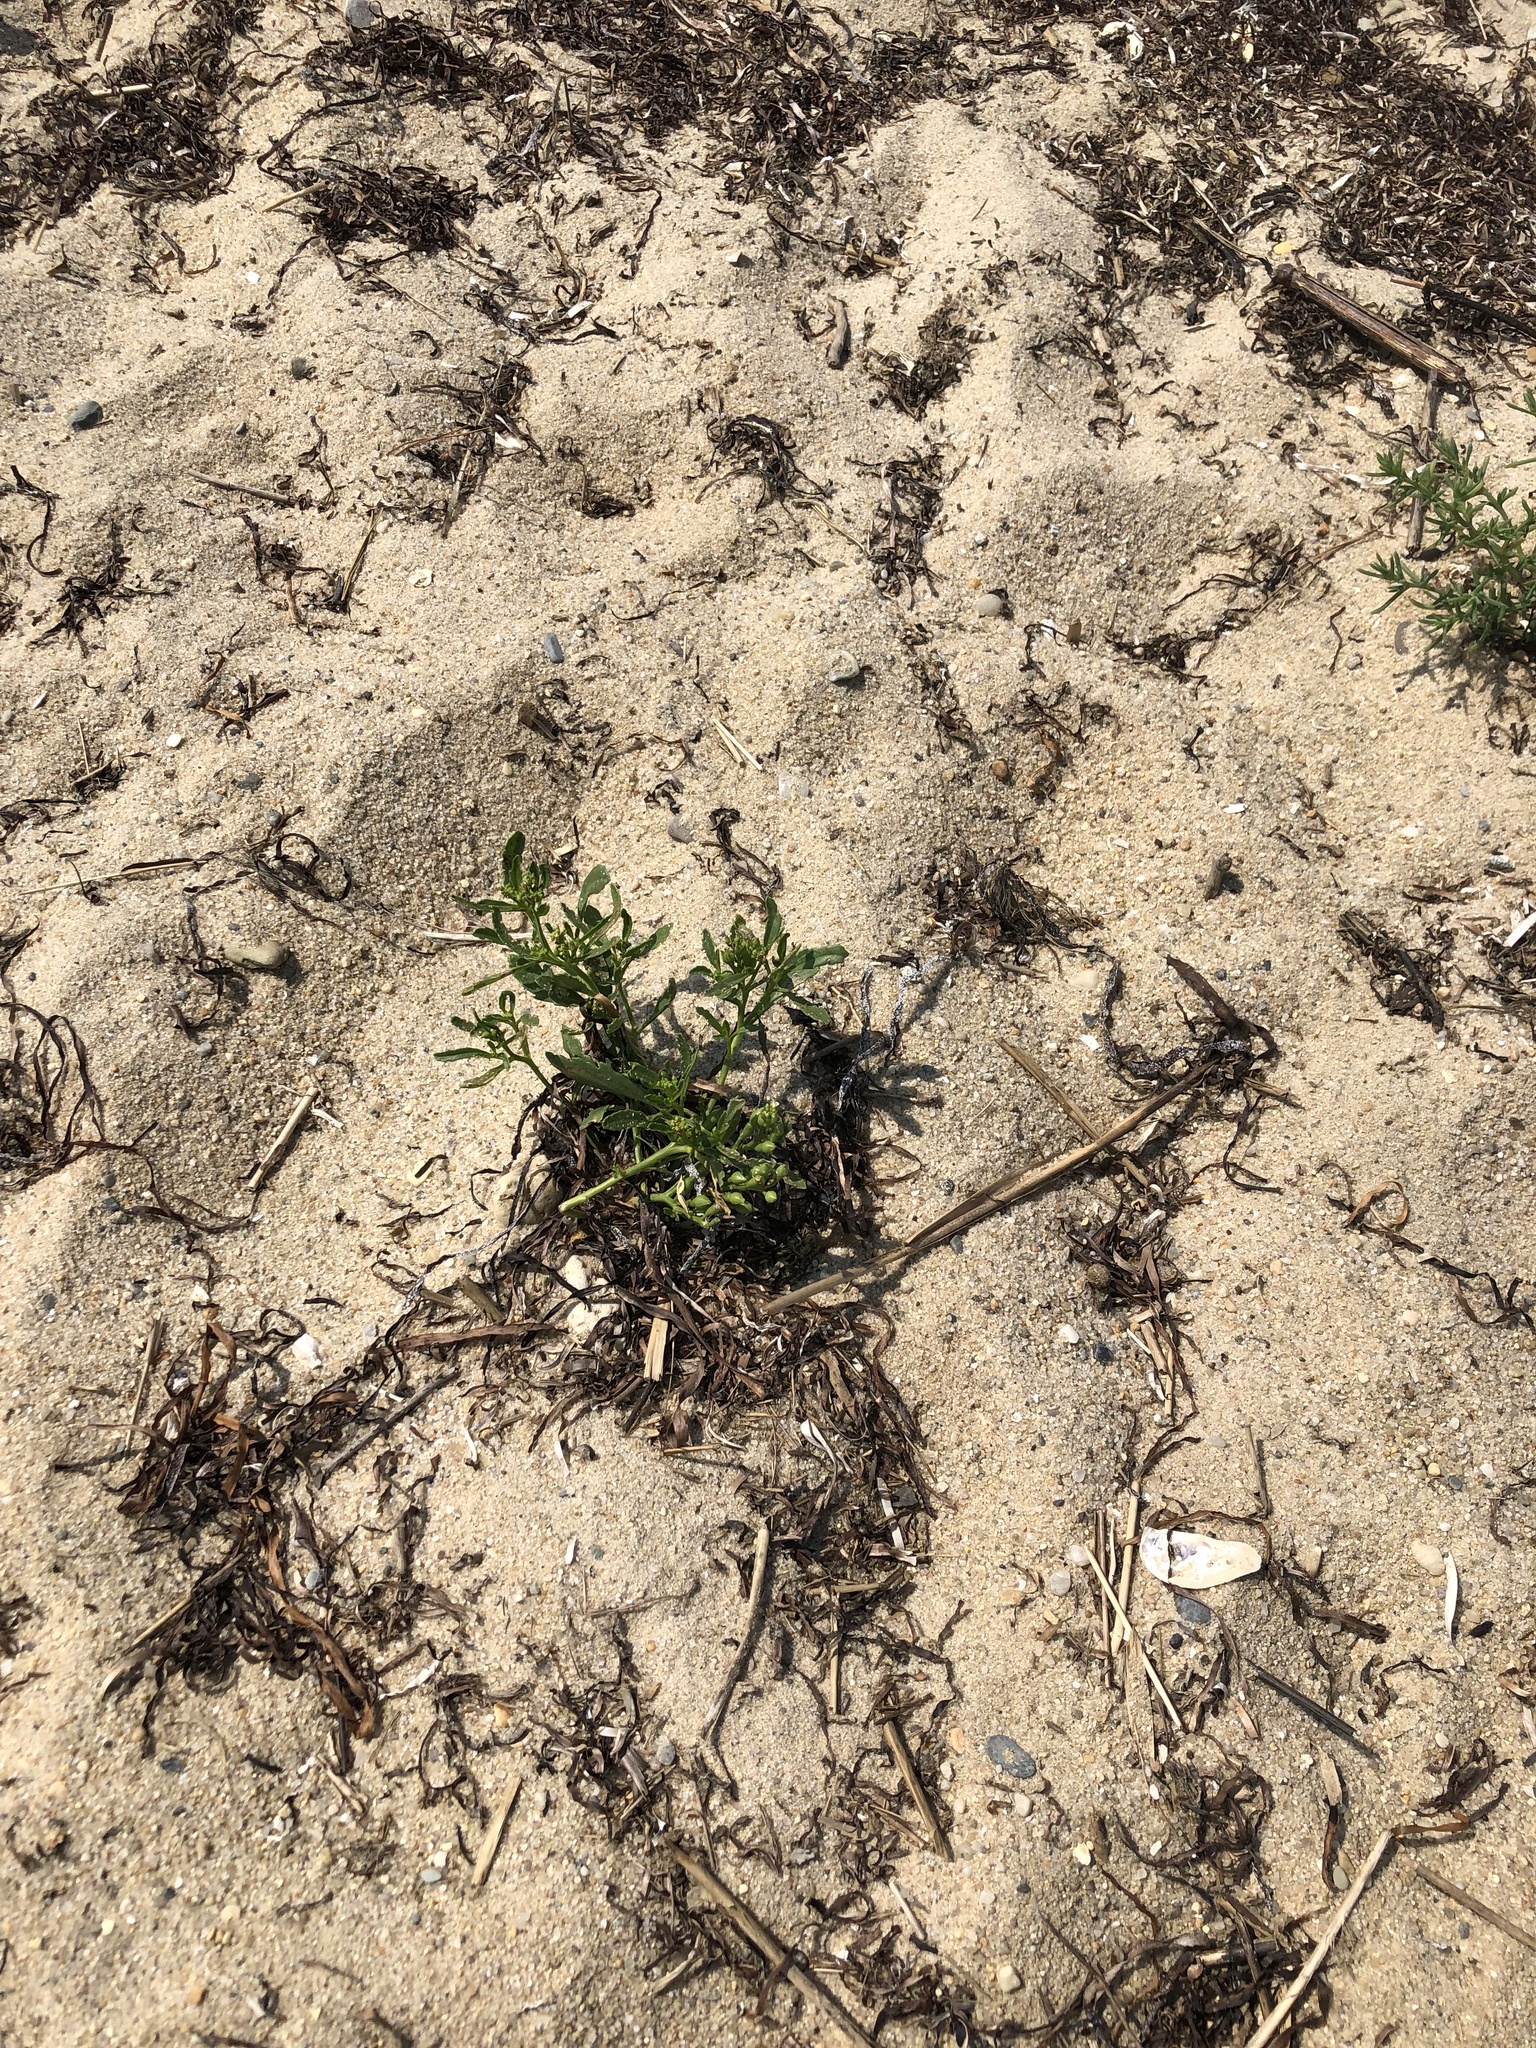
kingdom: Plantae
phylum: Tracheophyta
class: Magnoliopsida
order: Brassicales
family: Brassicaceae
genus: Cakile
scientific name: Cakile edentula
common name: American sea rocket
